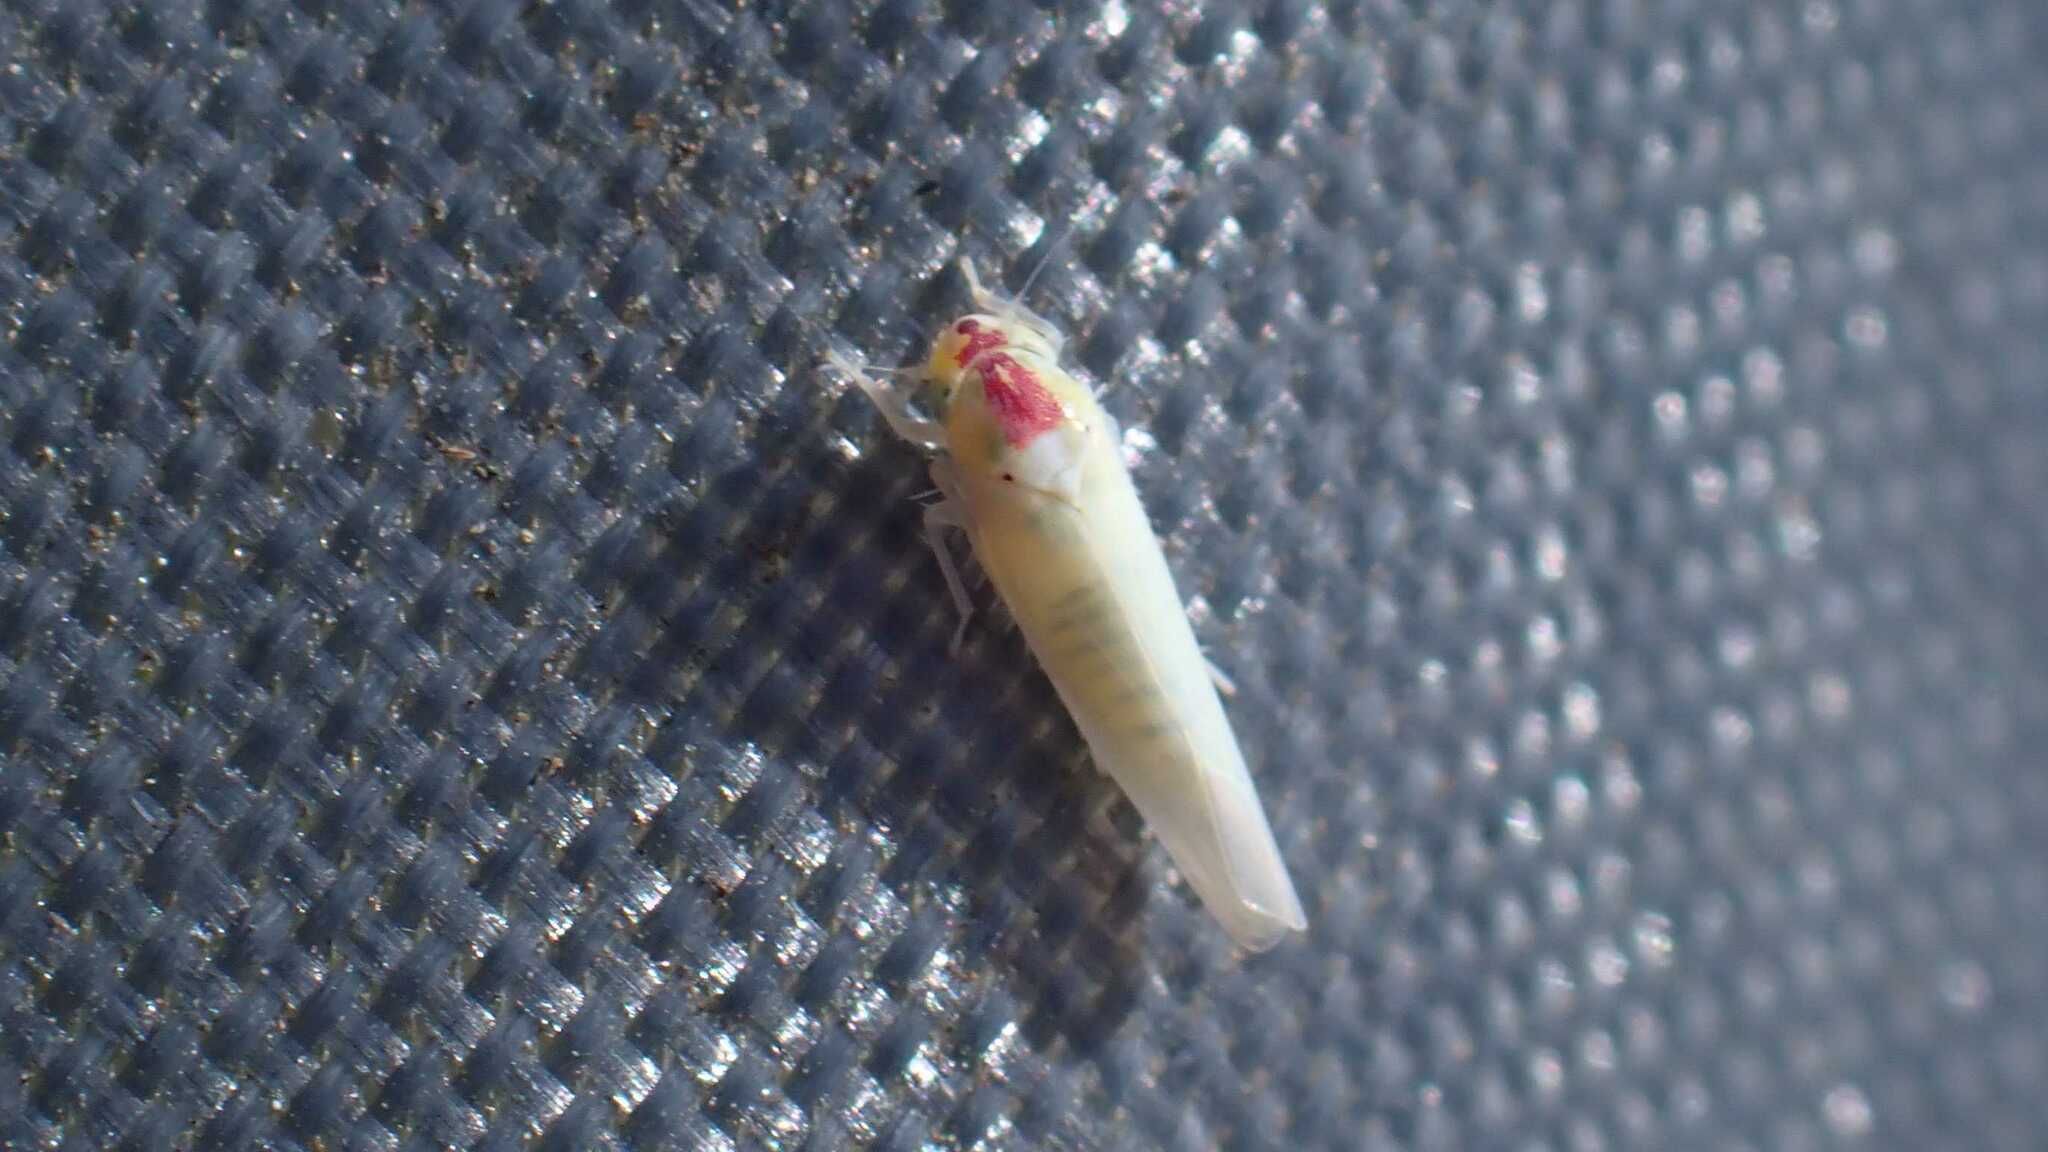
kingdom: Animalia
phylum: Arthropoda
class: Insecta
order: Hemiptera
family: Cicadellidae
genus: Zygina
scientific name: Zygina nivea
